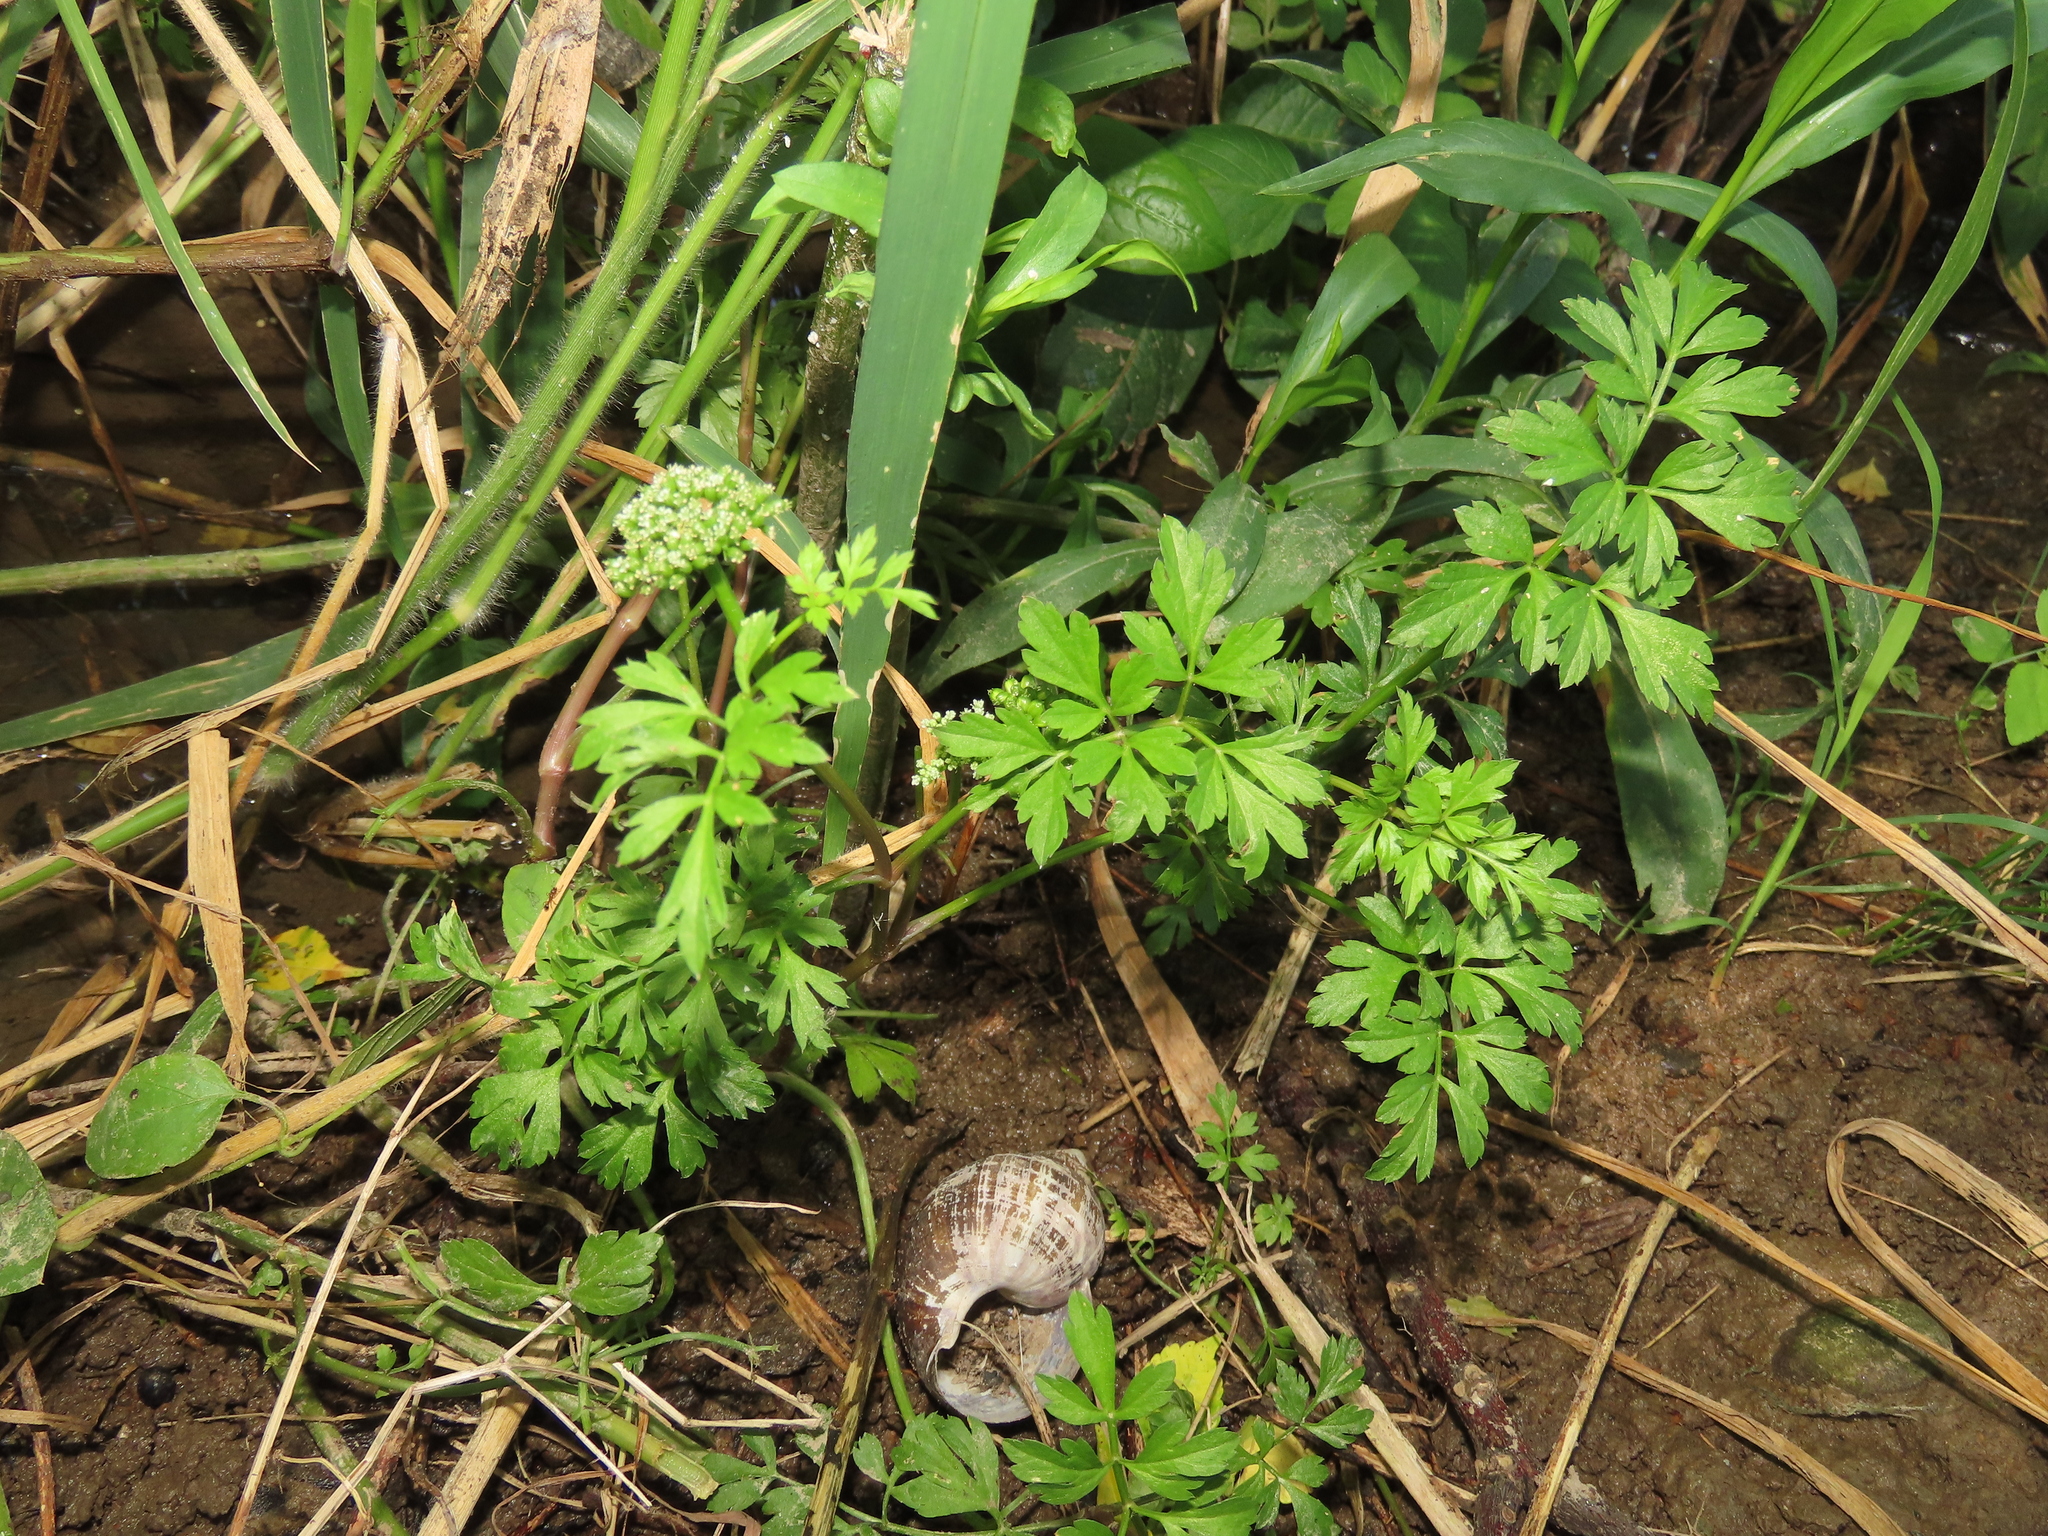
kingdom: Plantae
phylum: Tracheophyta
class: Magnoliopsida
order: Apiales
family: Apiaceae
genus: Oenanthe
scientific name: Oenanthe javanica
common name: Java water-dropwort
